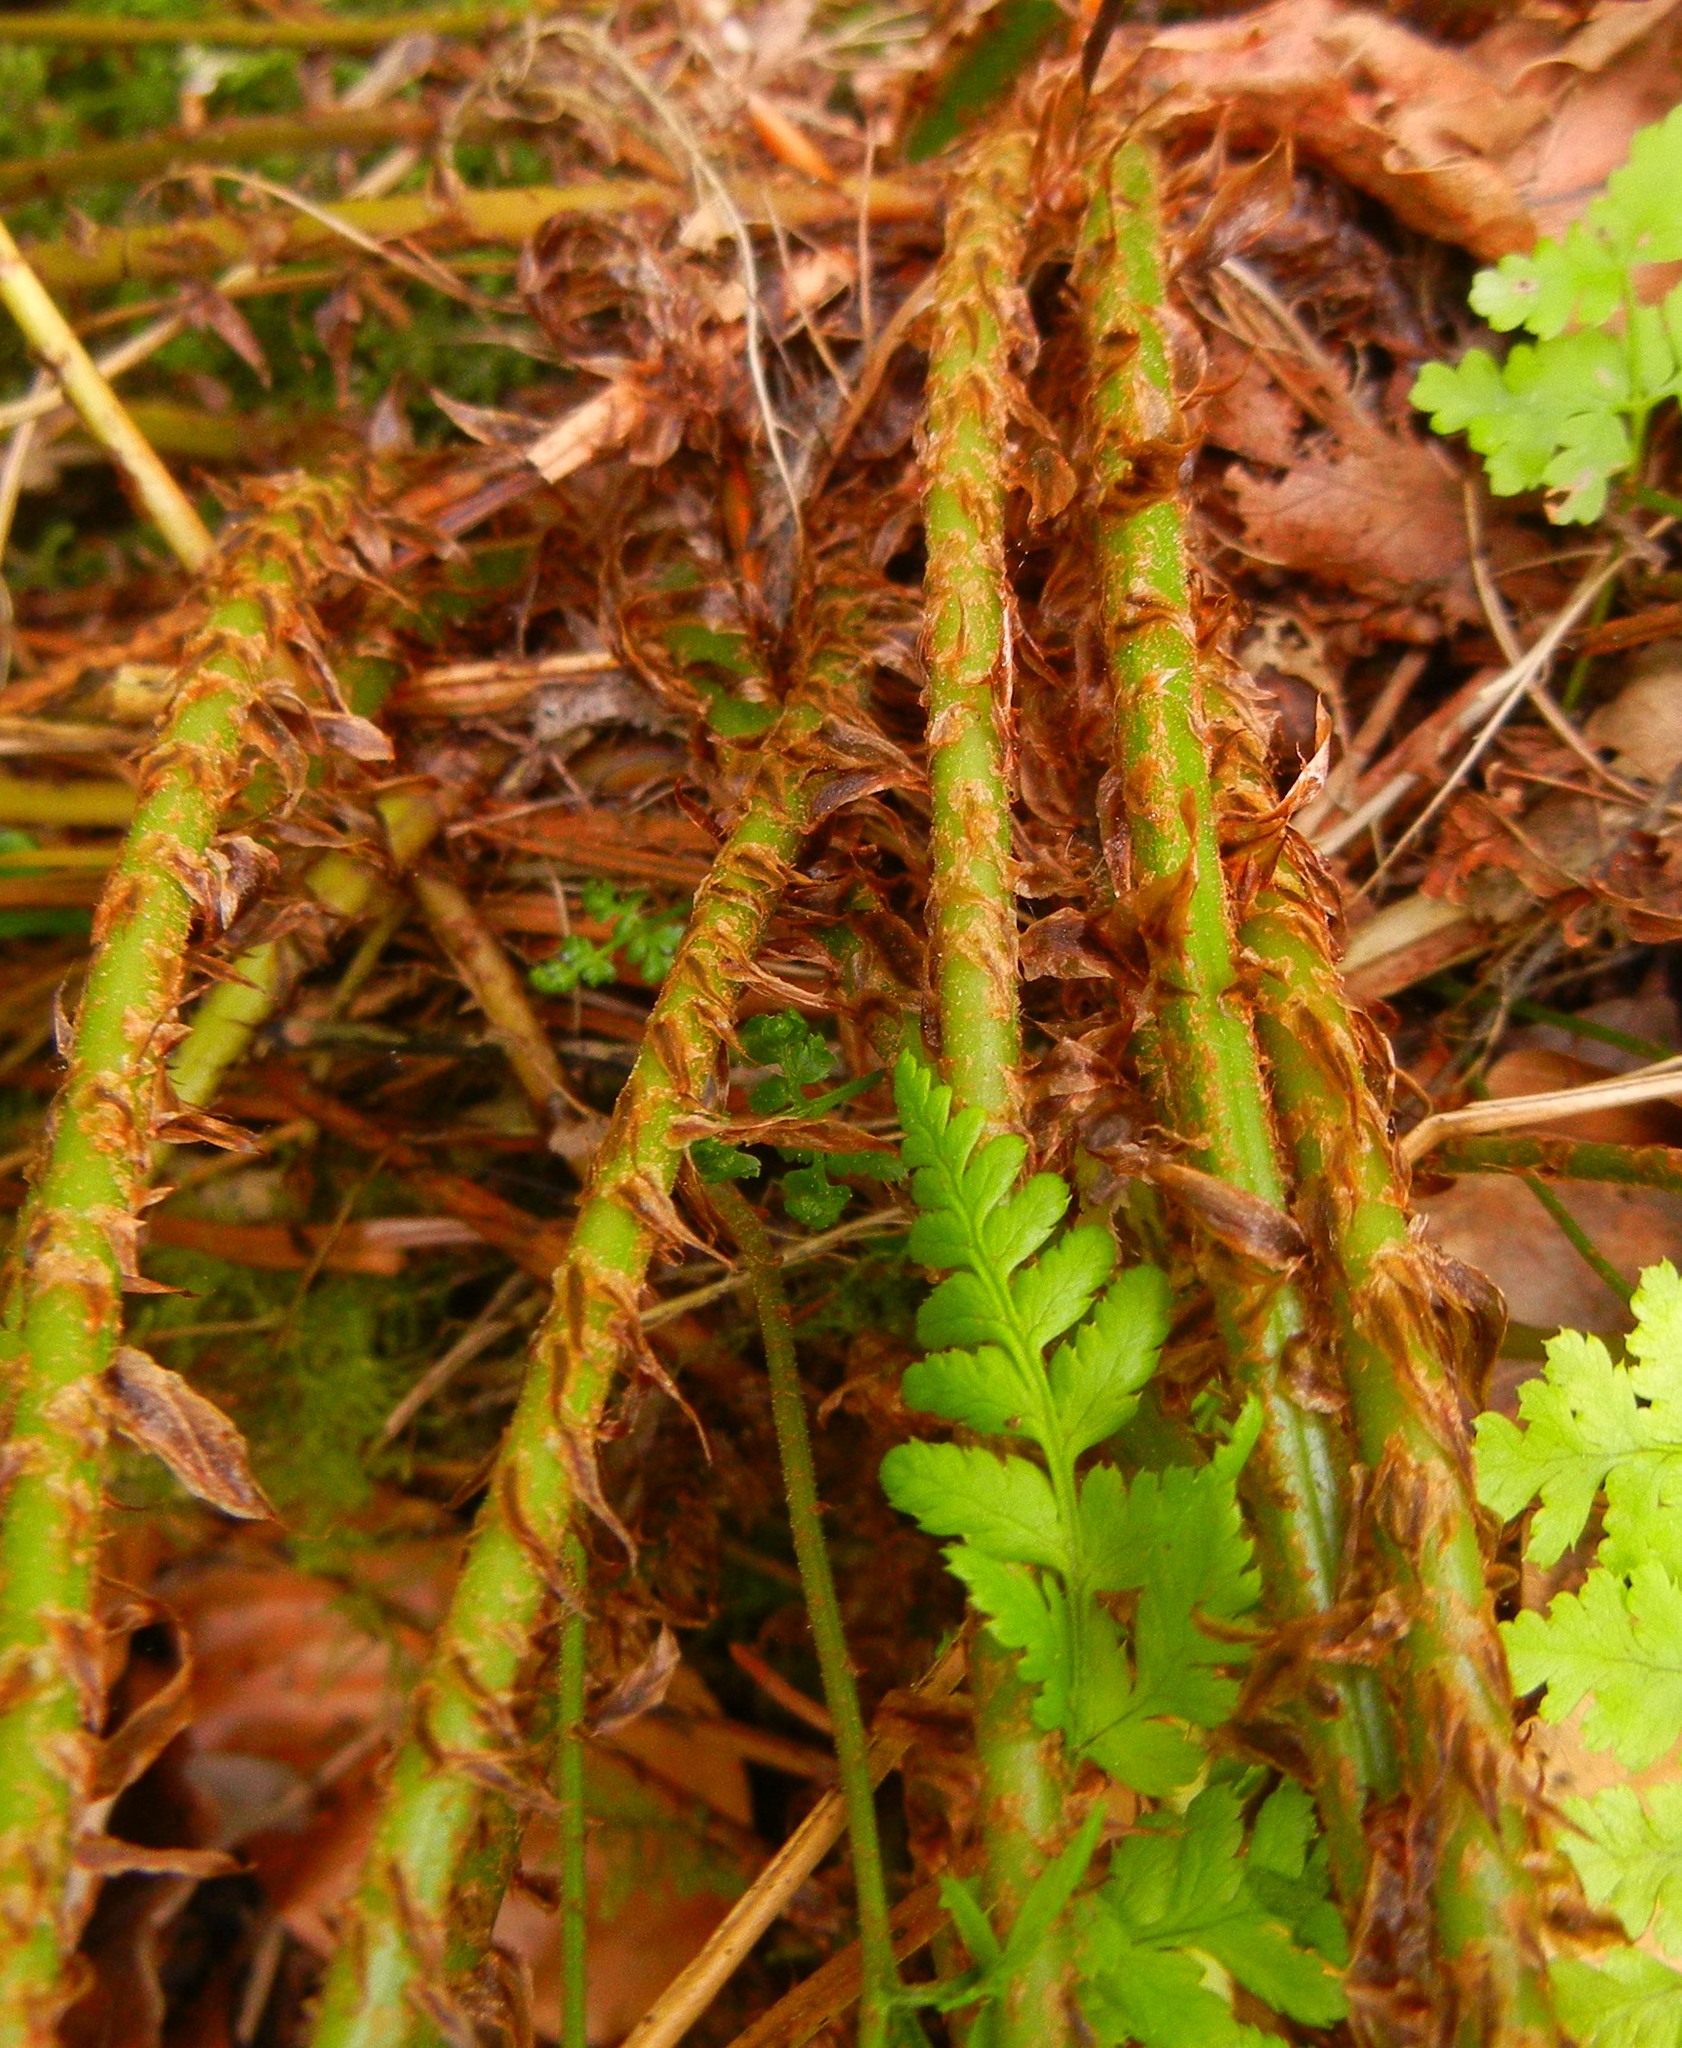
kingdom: Plantae
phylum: Tracheophyta
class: Polypodiopsida
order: Polypodiales
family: Dryopteridaceae
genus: Dryopteris
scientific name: Dryopteris dilatata
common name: Broad buckler-fern
